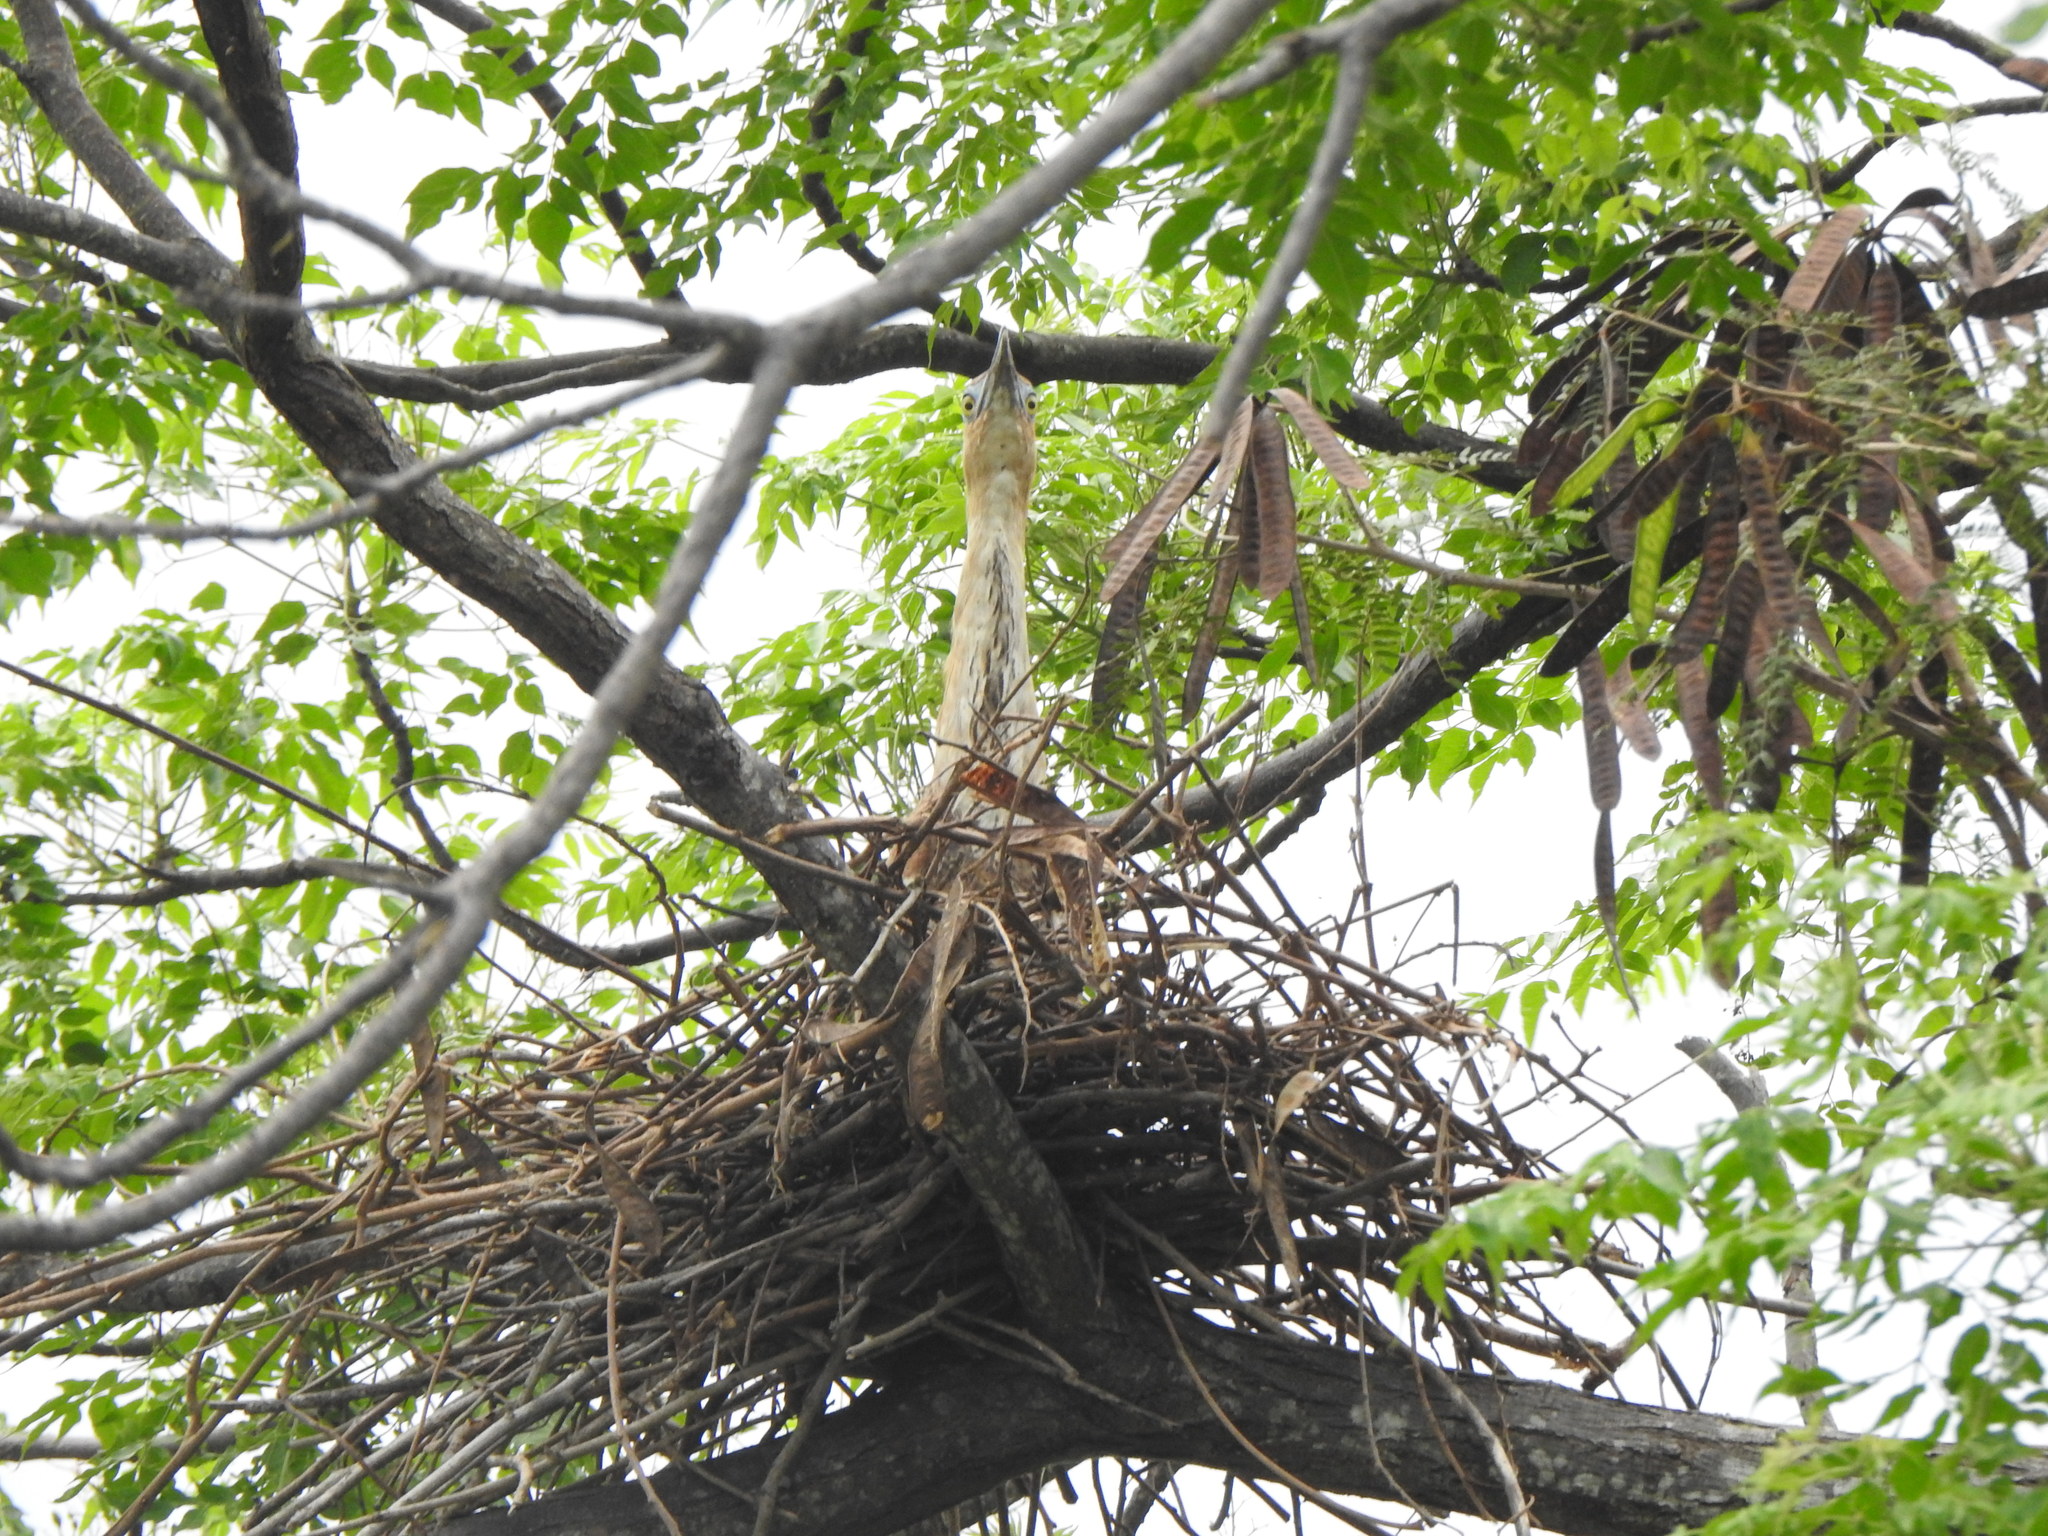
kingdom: Animalia
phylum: Chordata
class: Aves
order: Pelecaniformes
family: Ardeidae
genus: Gorsachius
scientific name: Gorsachius melanolophus
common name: Malayan night heron
